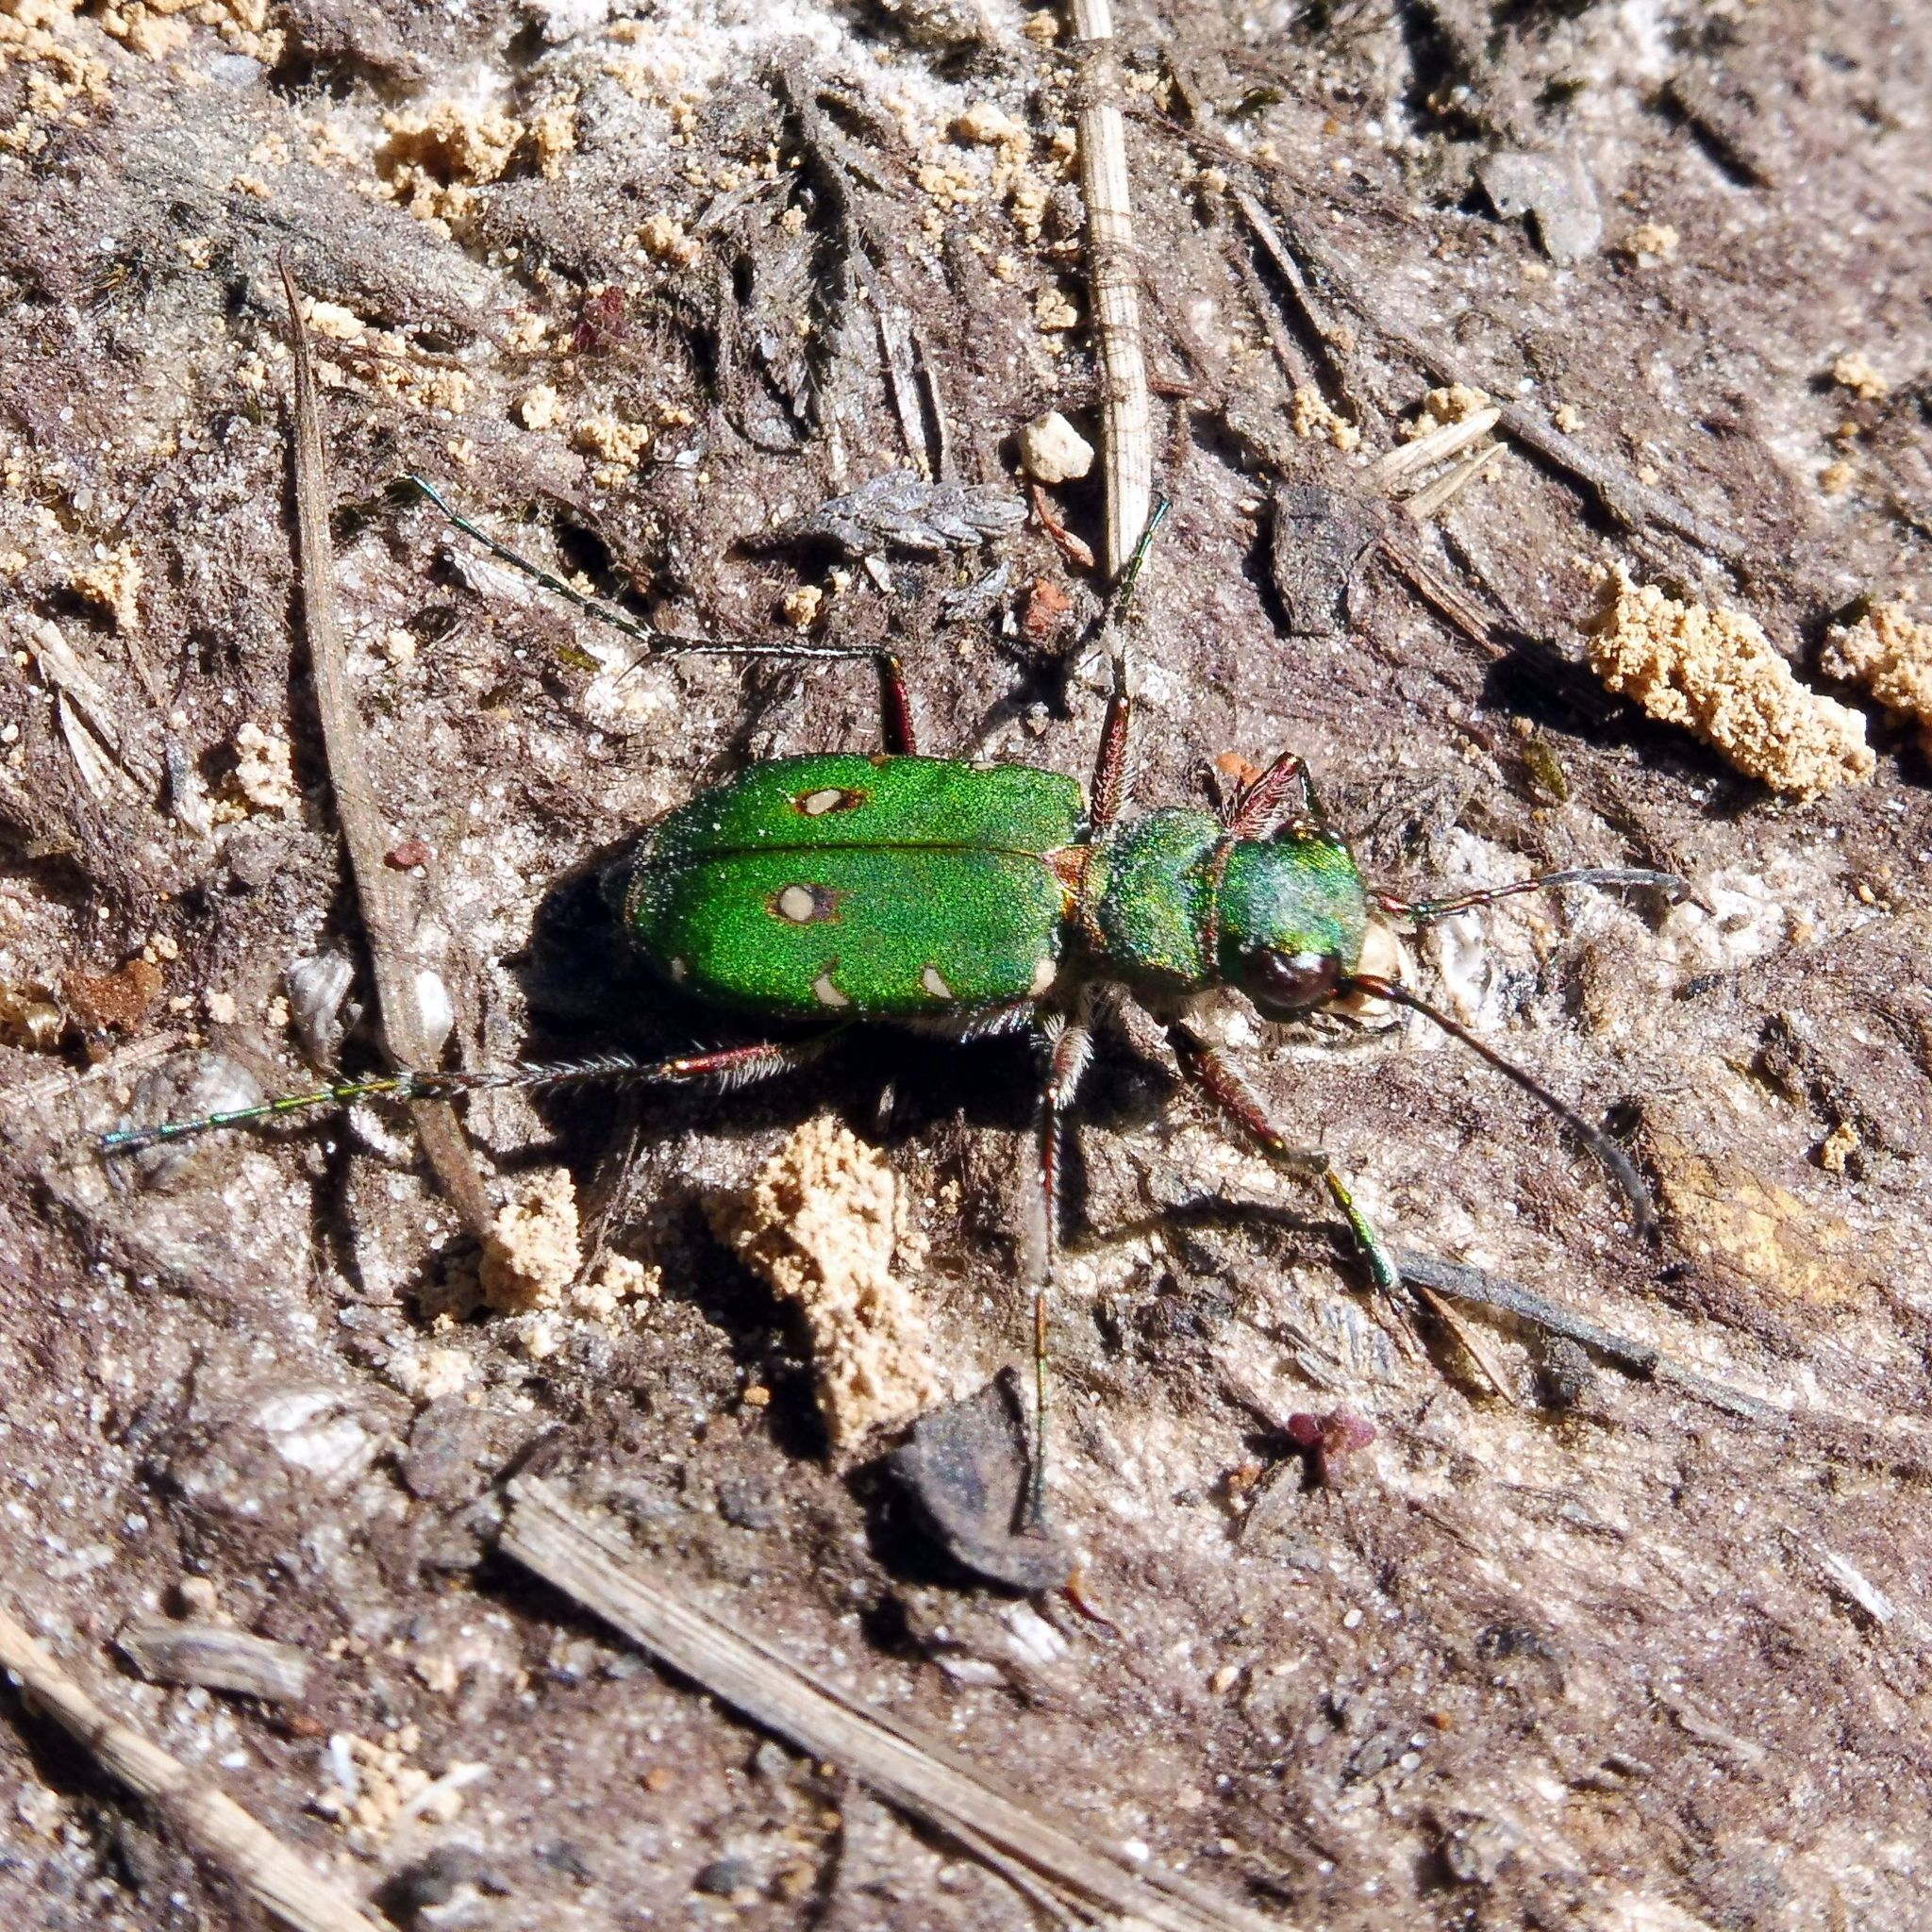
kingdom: Animalia
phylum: Arthropoda
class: Insecta
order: Coleoptera
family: Carabidae
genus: Cicindela
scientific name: Cicindela campestris
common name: Common tiger beetle
